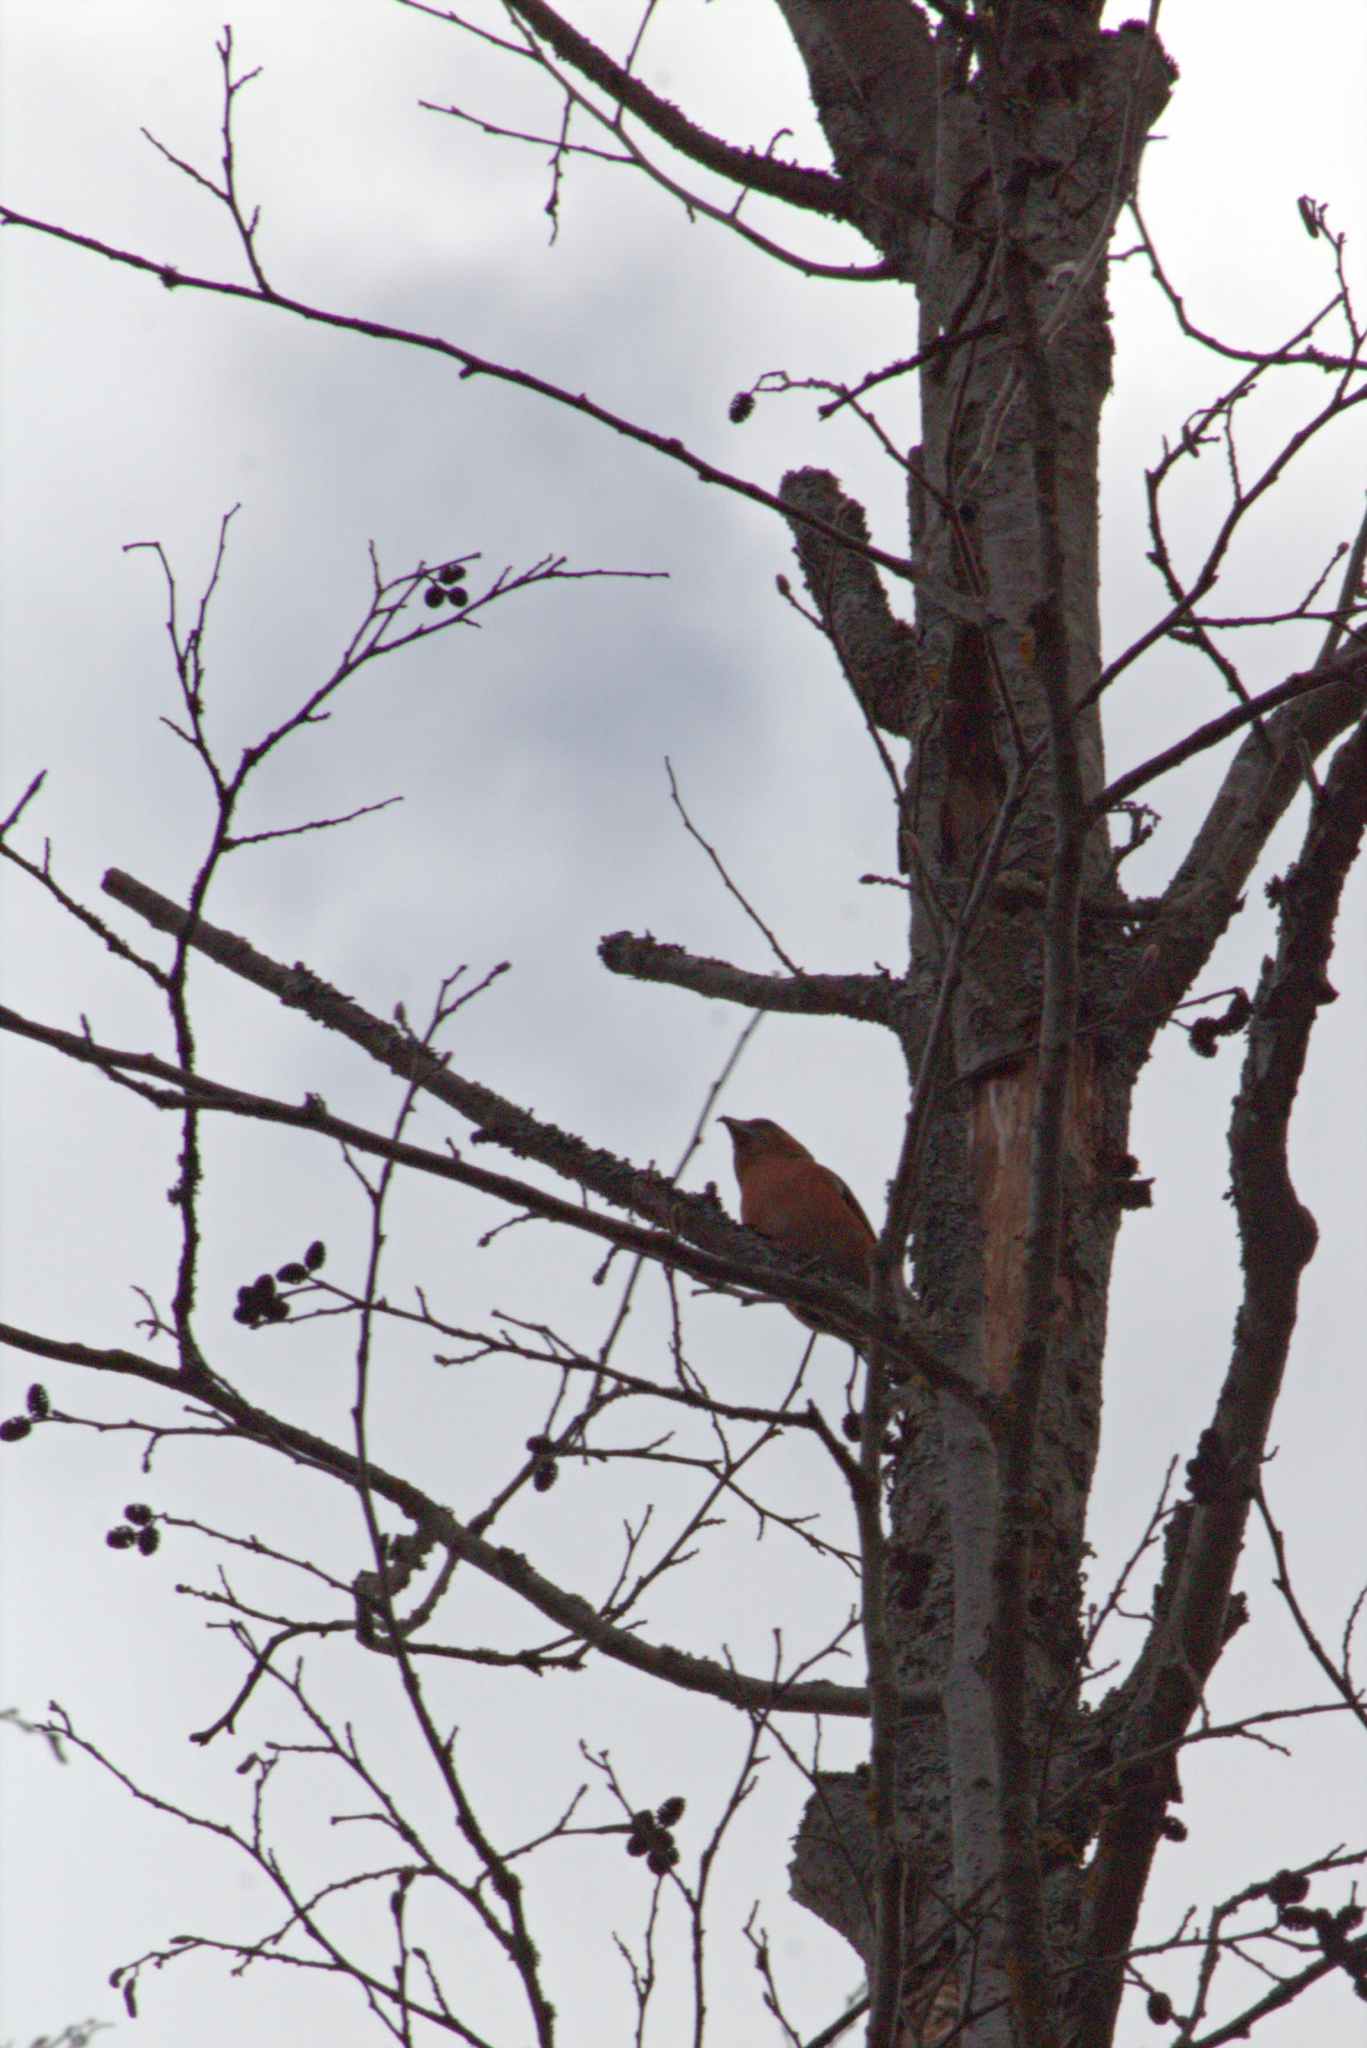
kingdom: Animalia
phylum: Chordata
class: Aves
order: Passeriformes
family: Fringillidae
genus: Loxia
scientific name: Loxia curvirostra
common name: Red crossbill
